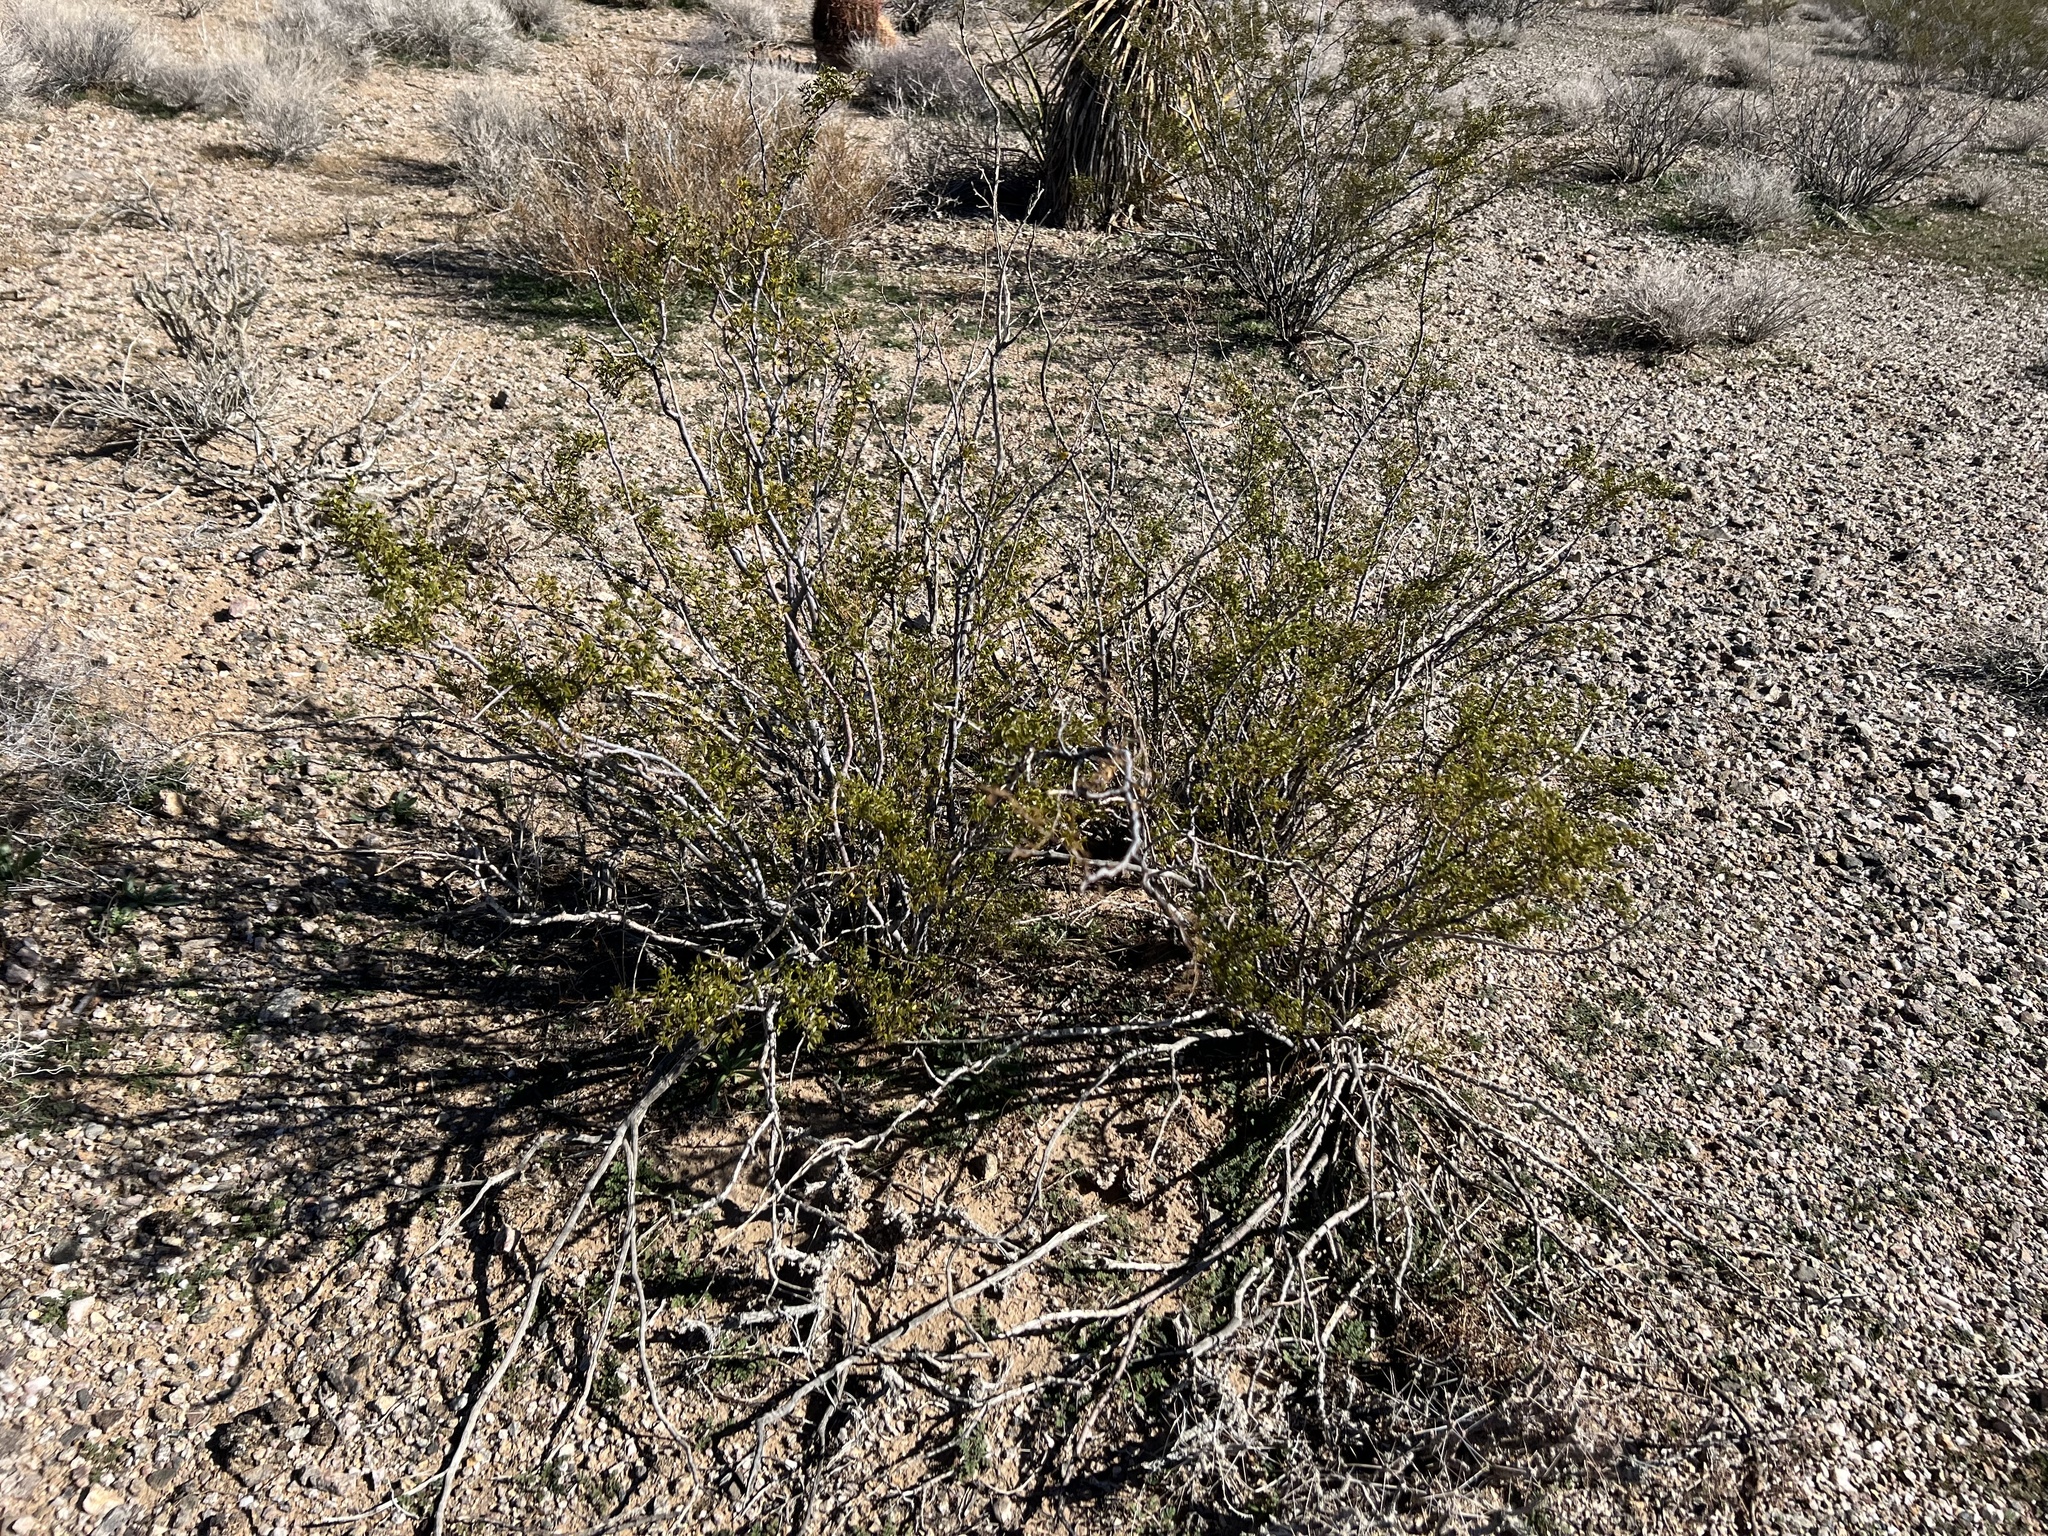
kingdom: Plantae
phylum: Tracheophyta
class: Magnoliopsida
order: Zygophyllales
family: Zygophyllaceae
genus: Larrea
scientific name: Larrea tridentata
